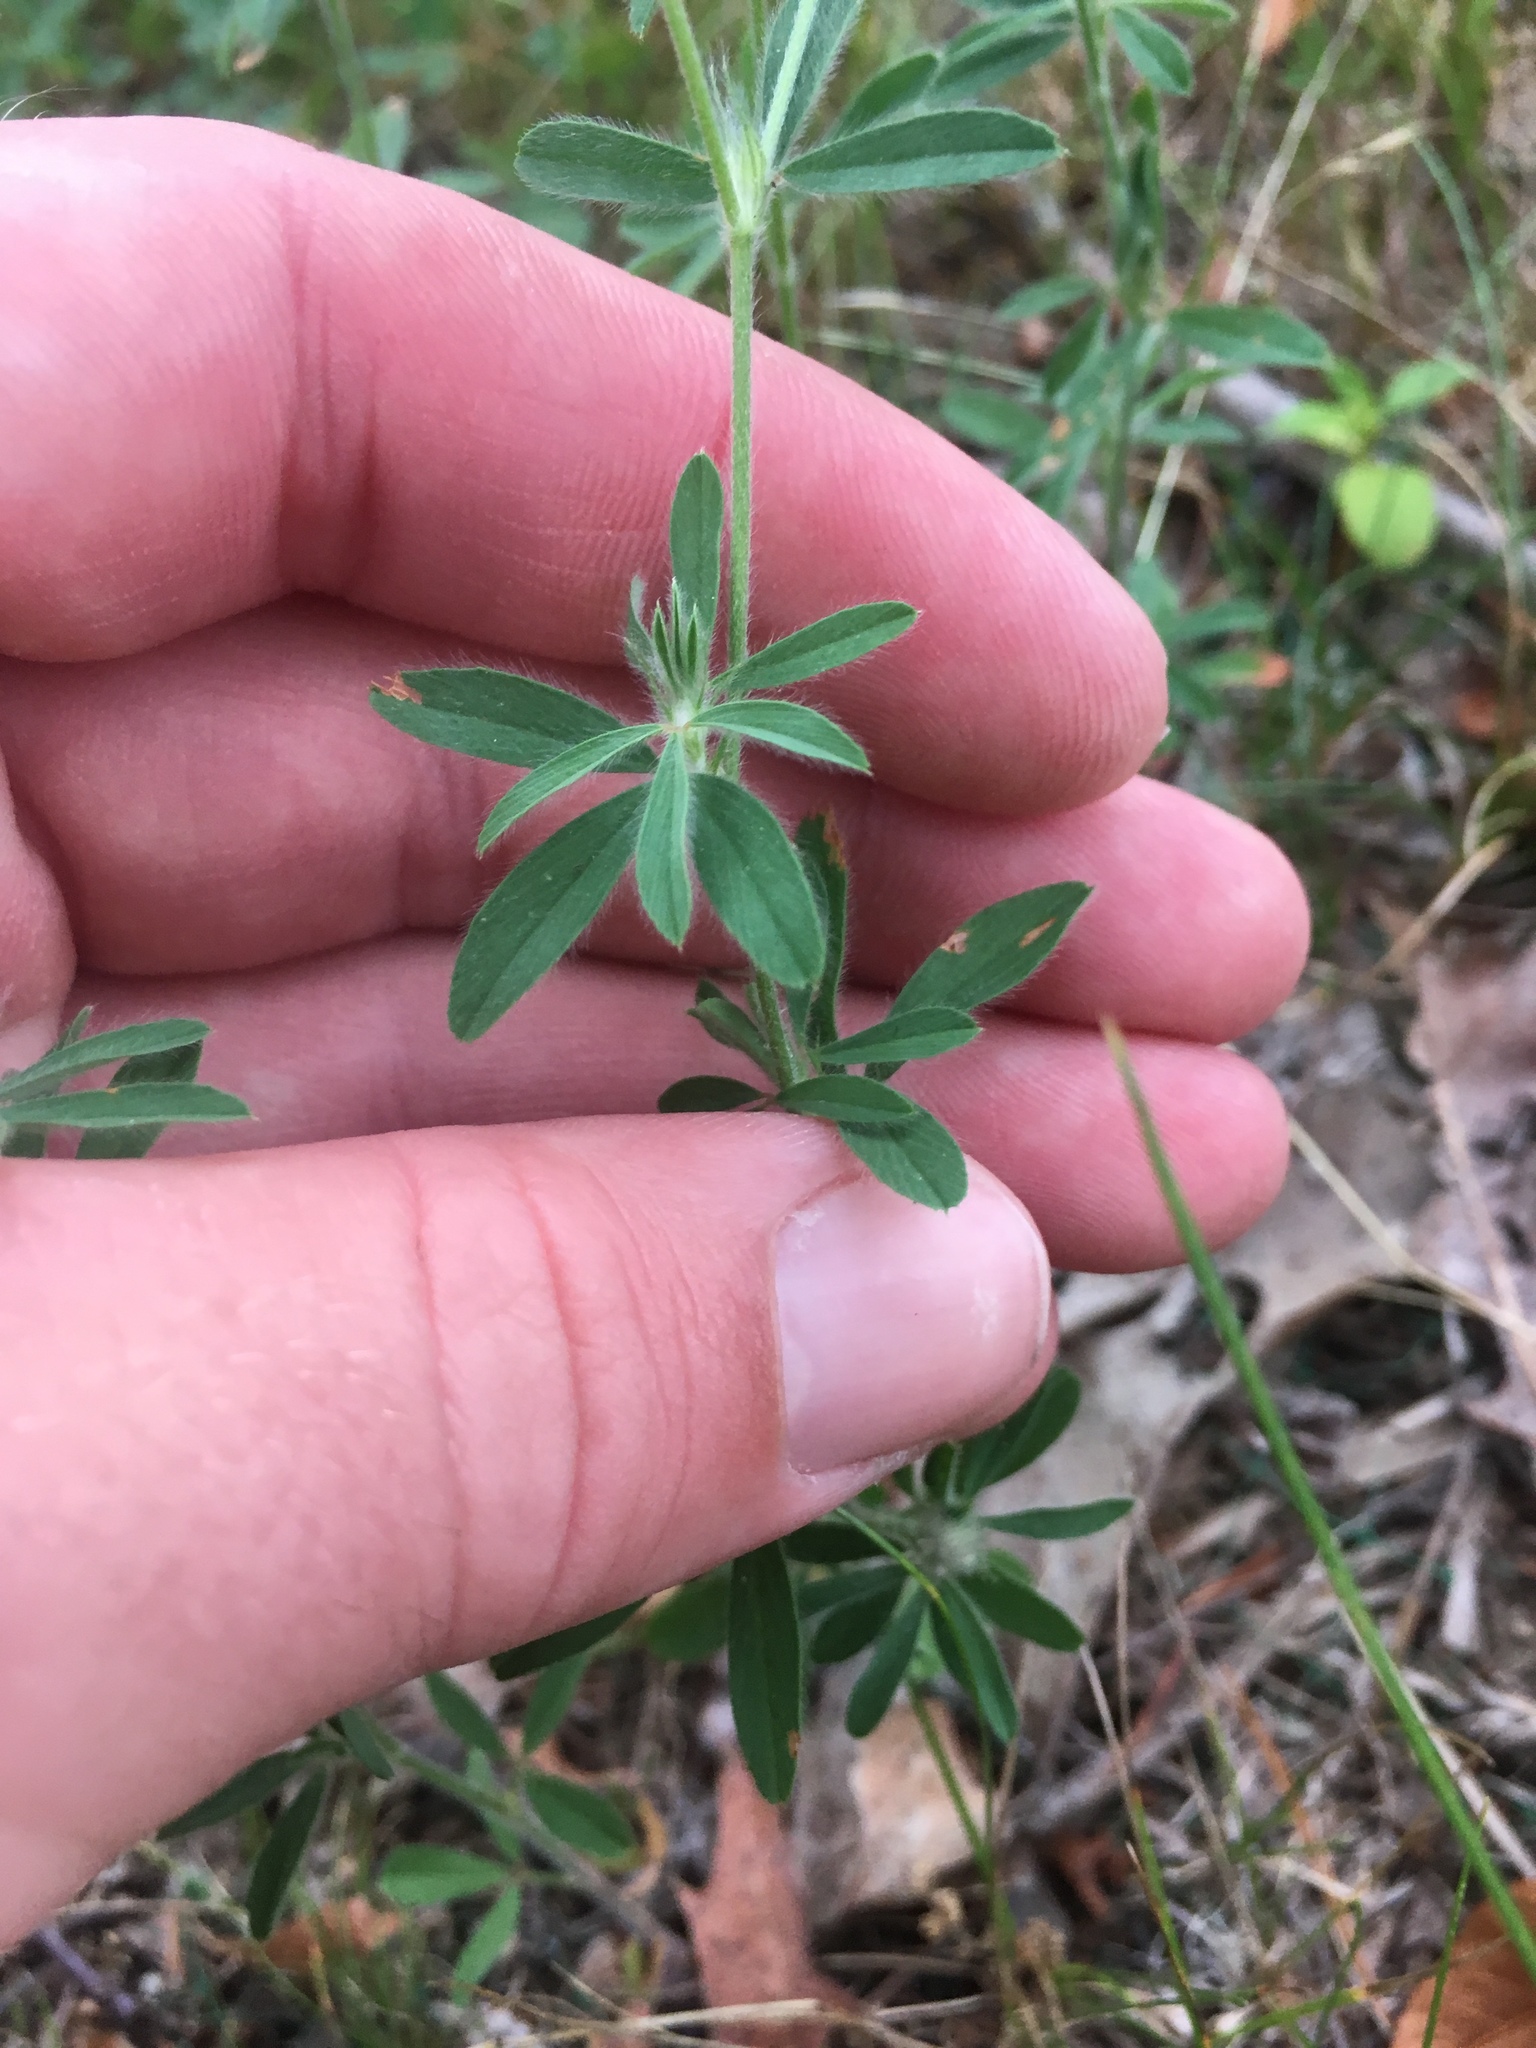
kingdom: Plantae
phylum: Tracheophyta
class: Magnoliopsida
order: Fabales
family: Fabaceae
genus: Trifolium
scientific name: Trifolium arvense
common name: Hare's-foot clover
